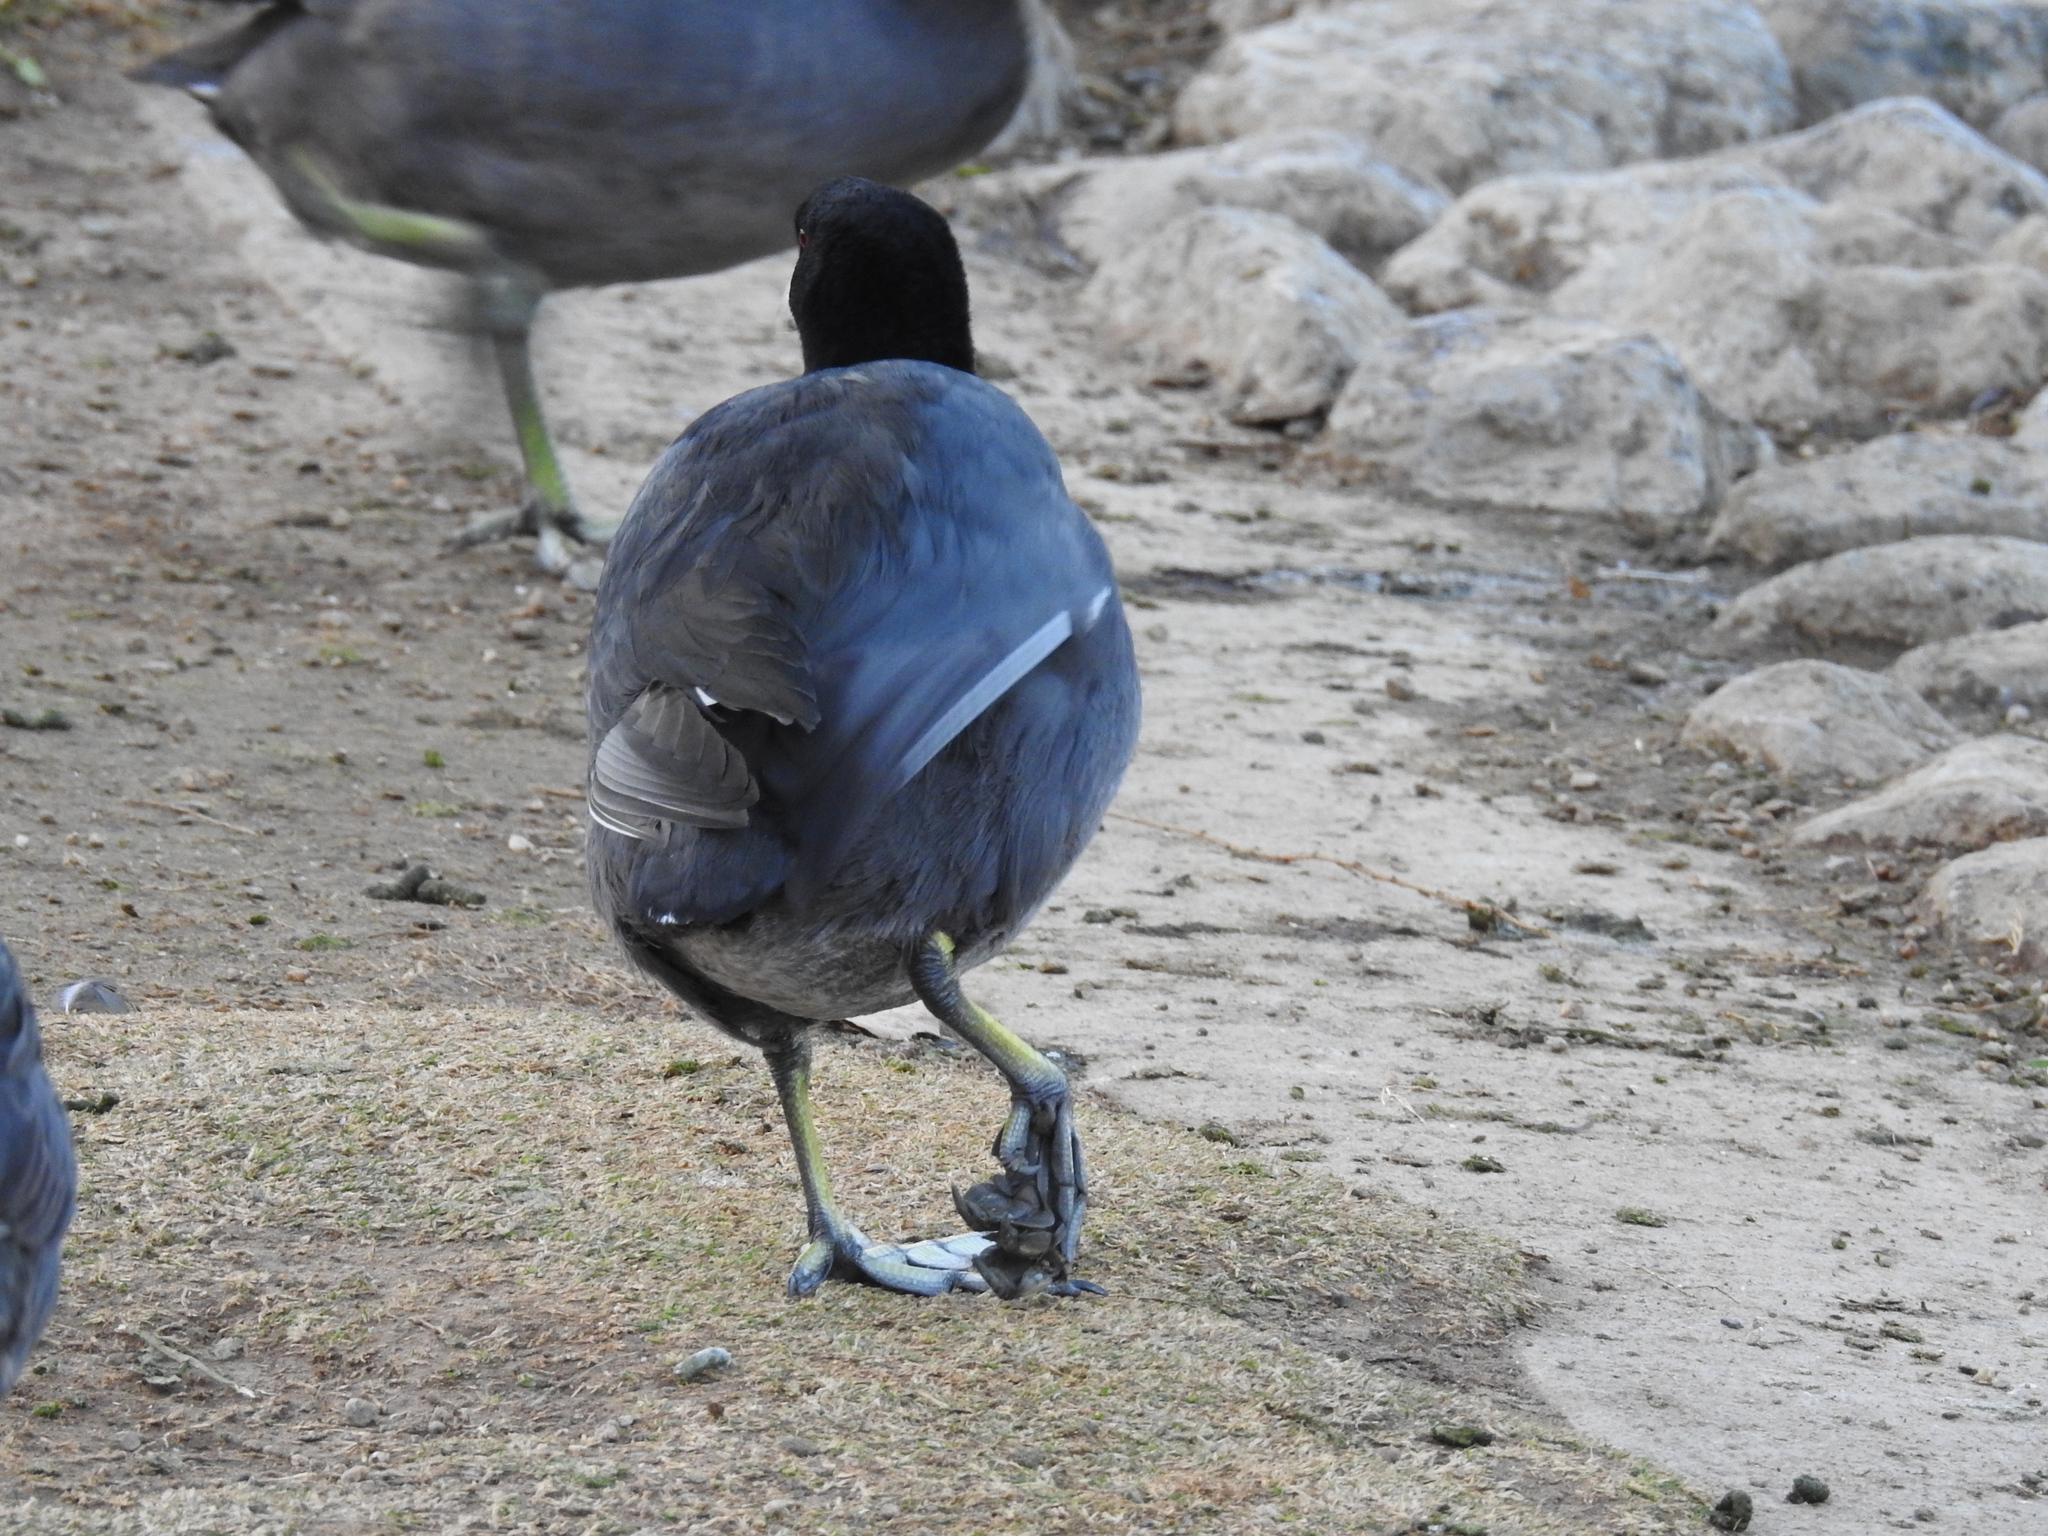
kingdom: Animalia
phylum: Chordata
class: Aves
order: Gruiformes
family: Rallidae
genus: Fulica
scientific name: Fulica americana
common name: American coot
